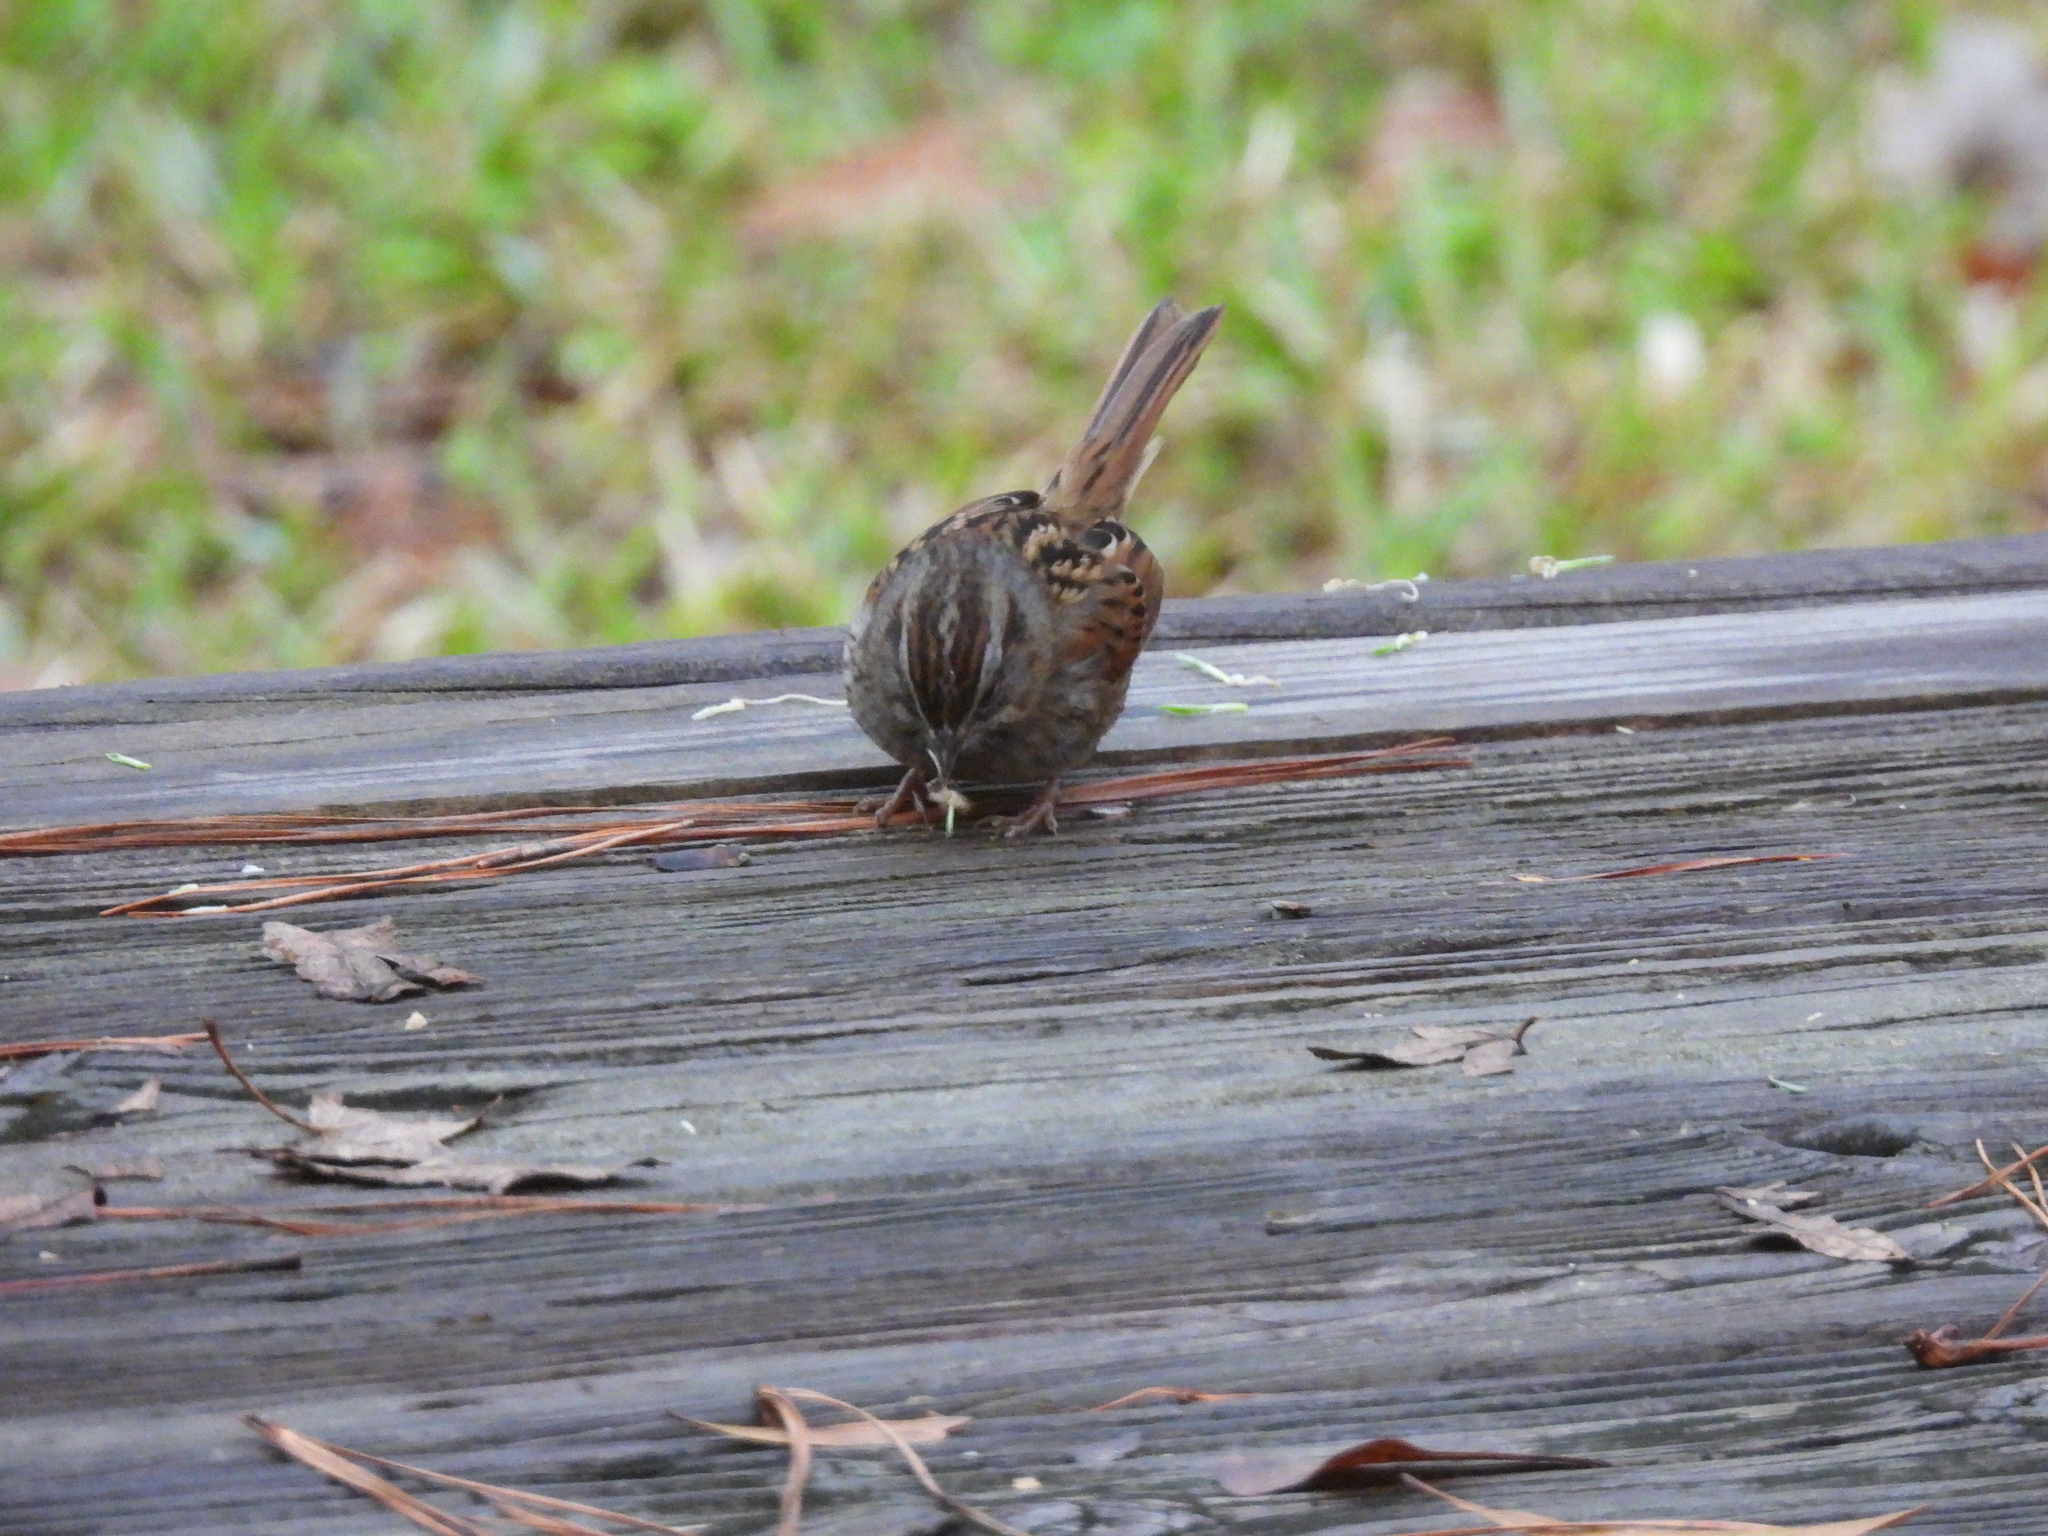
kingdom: Animalia
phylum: Chordata
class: Aves
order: Passeriformes
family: Passerellidae
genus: Melospiza
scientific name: Melospiza georgiana
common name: Swamp sparrow
